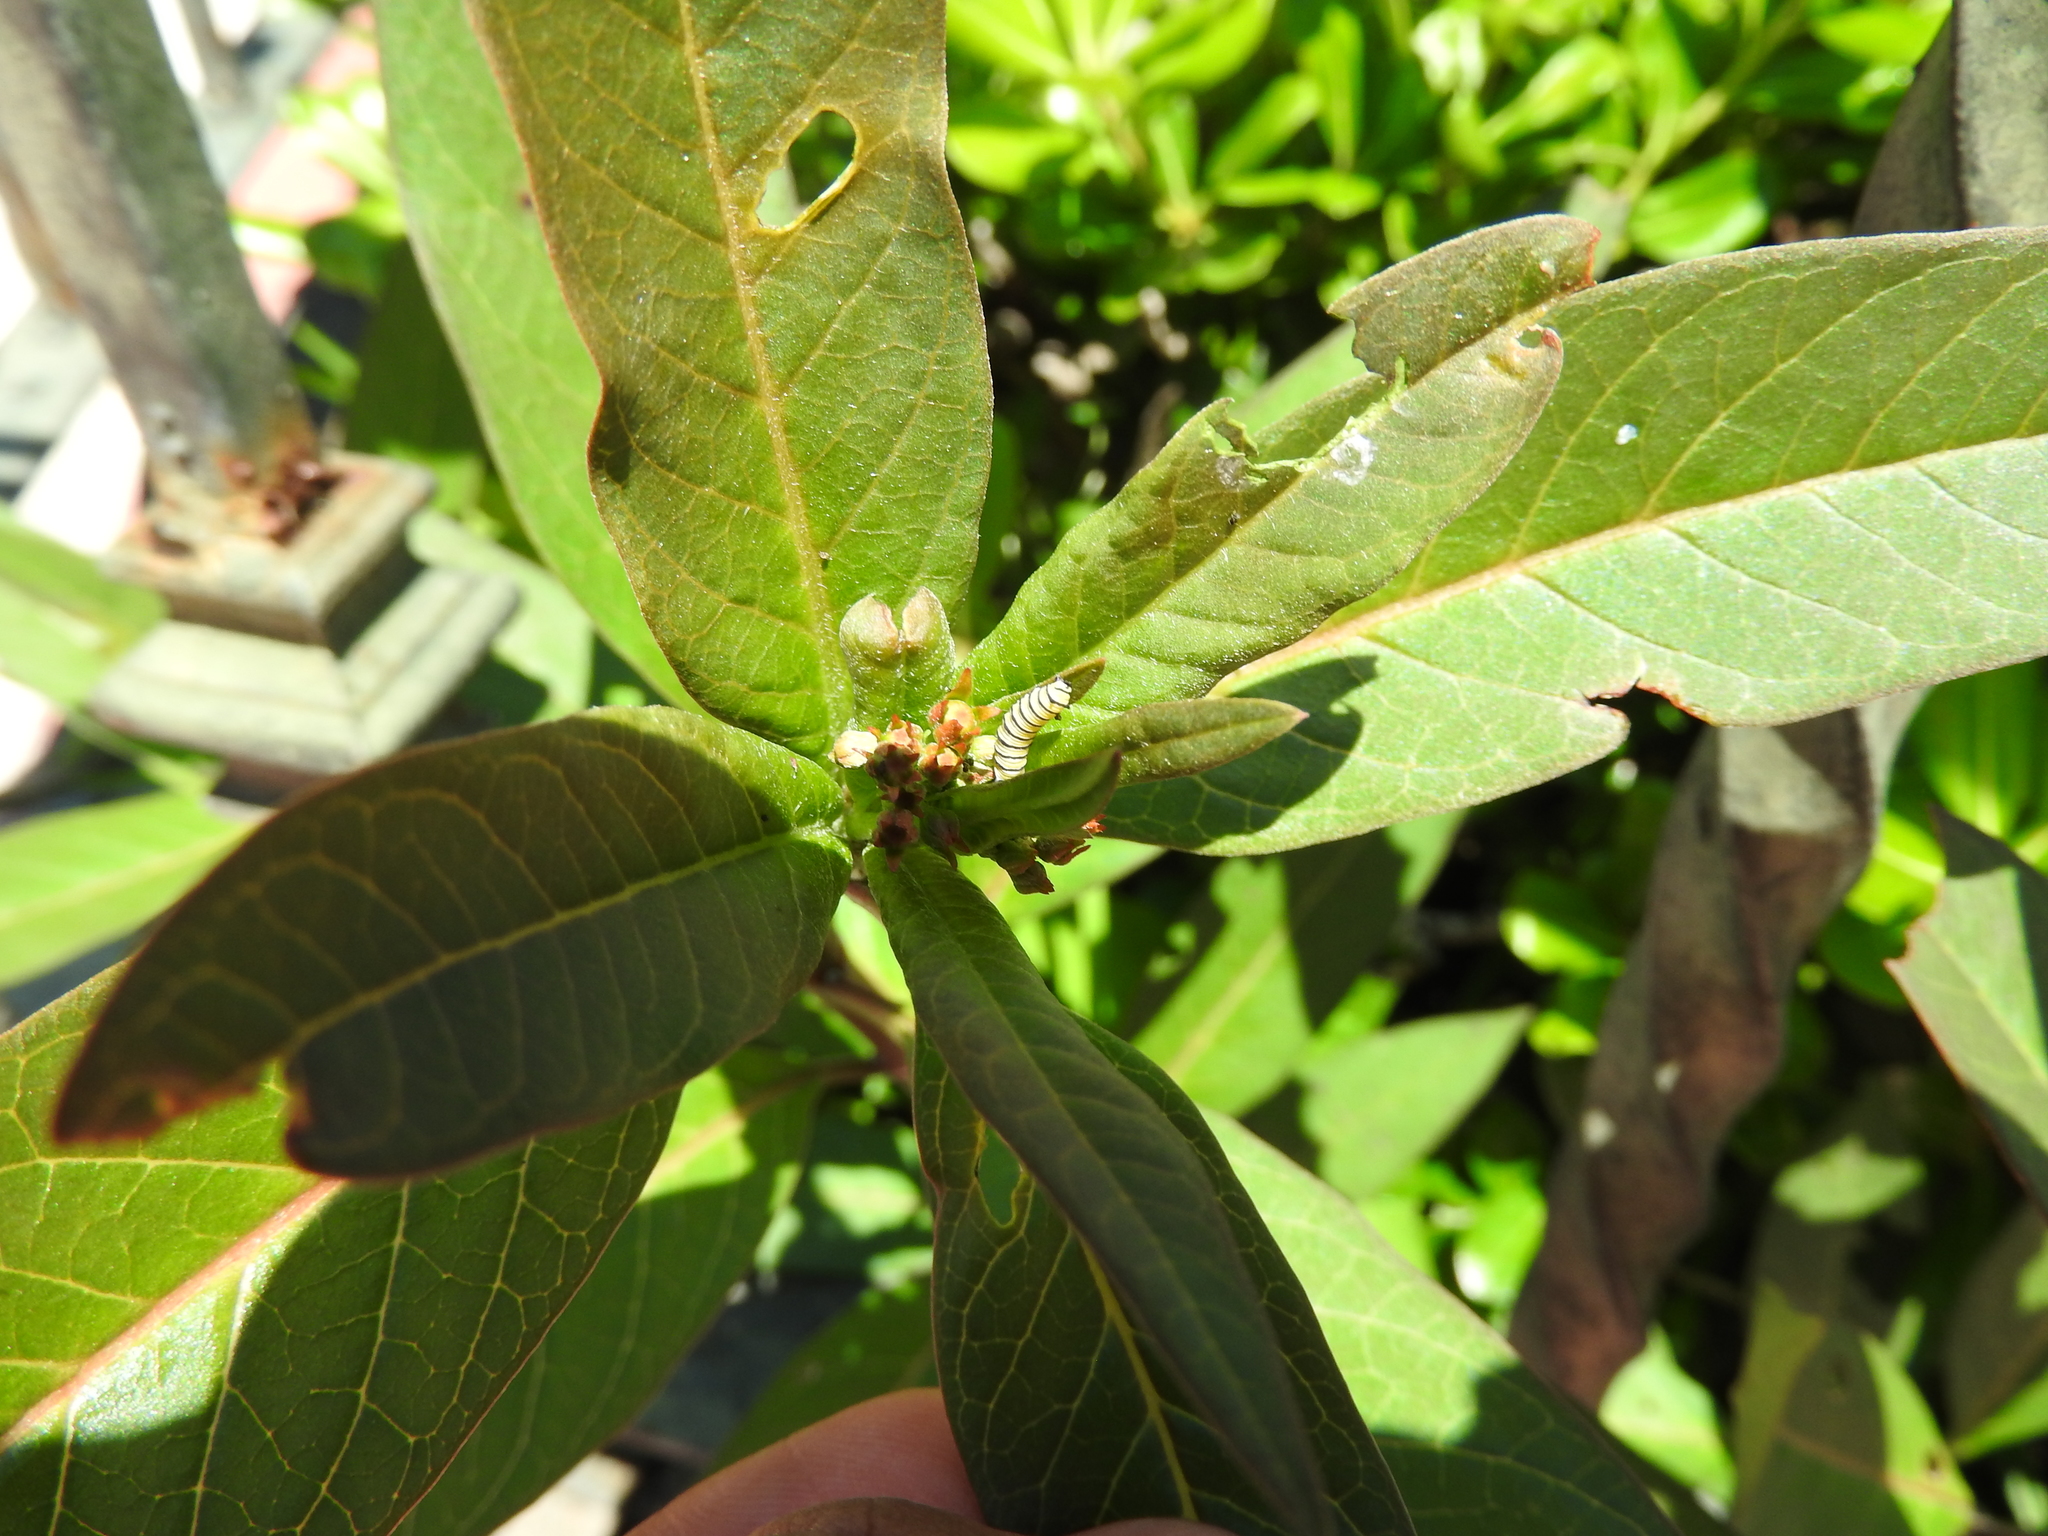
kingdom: Animalia
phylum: Arthropoda
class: Insecta
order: Lepidoptera
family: Nymphalidae
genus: Danaus
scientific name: Danaus plexippus
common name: Monarch
